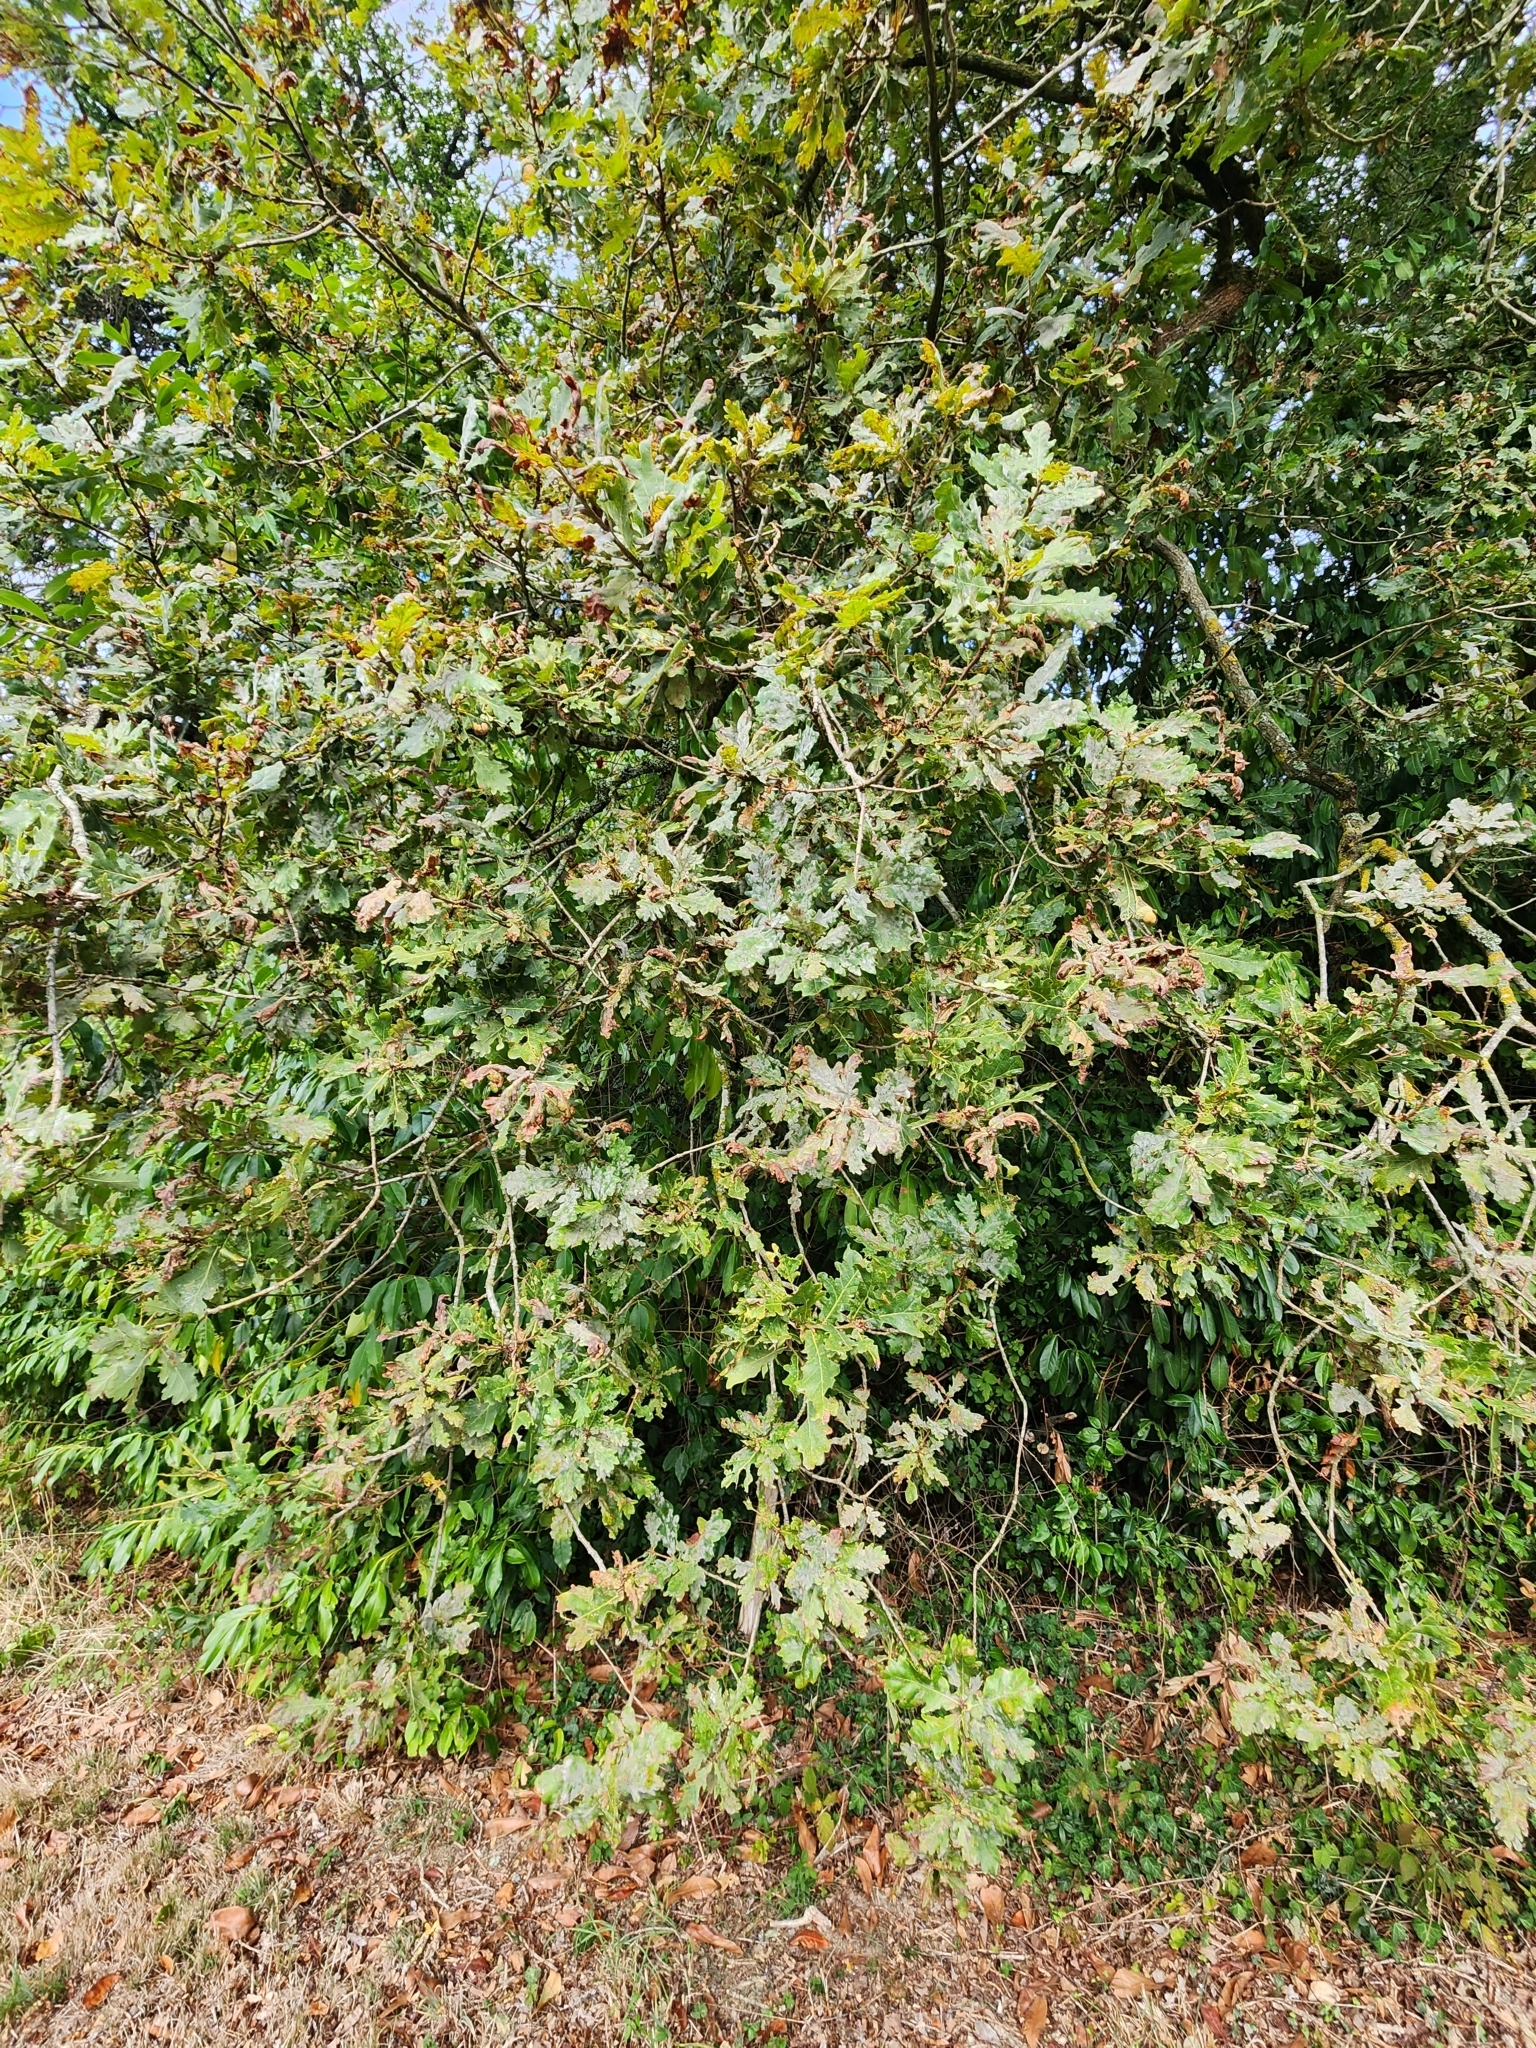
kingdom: Plantae
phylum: Tracheophyta
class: Magnoliopsida
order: Fagales
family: Fagaceae
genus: Quercus
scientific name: Quercus robur
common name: Pedunculate oak
